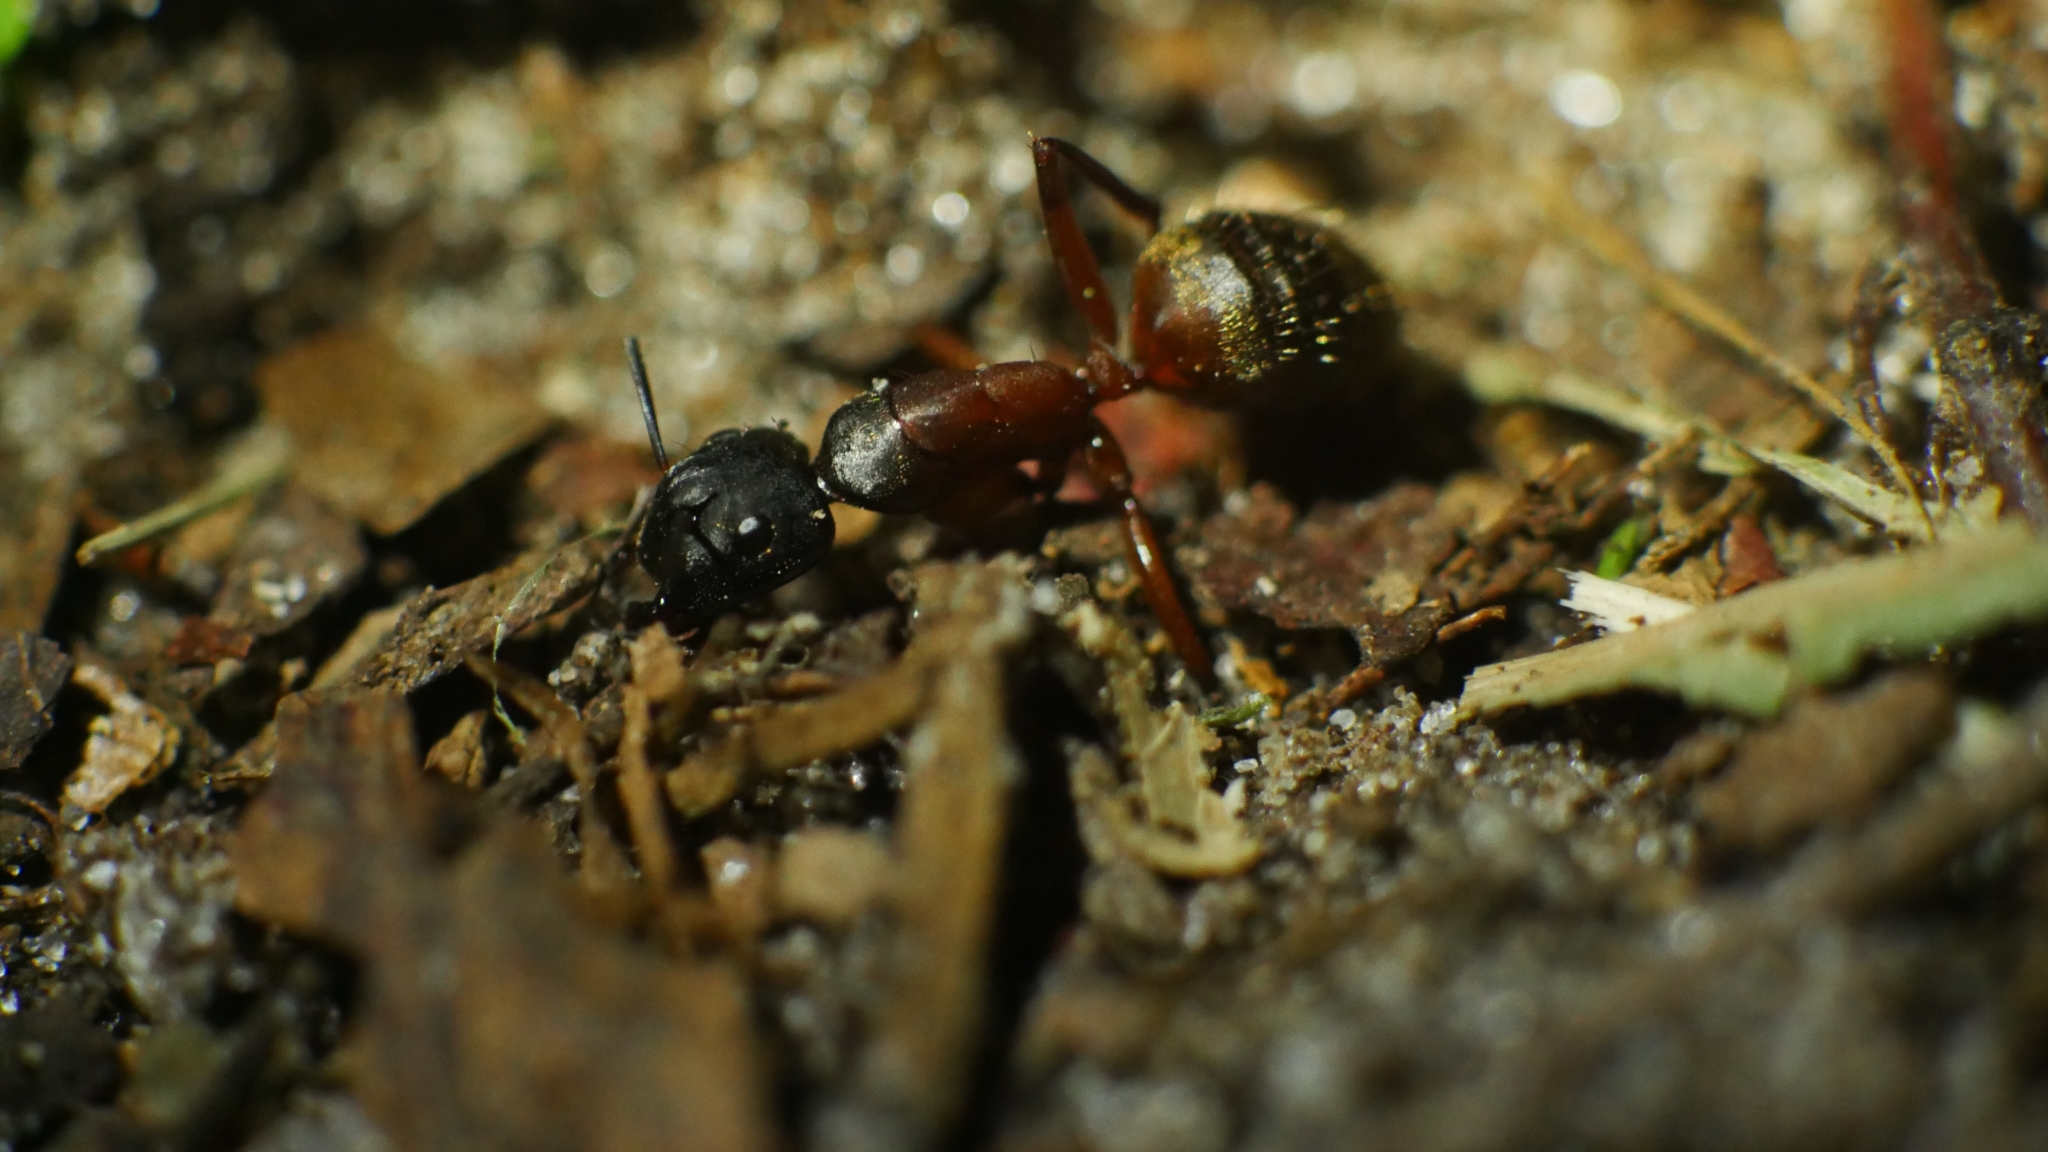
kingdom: Animalia
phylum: Arthropoda
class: Insecta
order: Hymenoptera
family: Formicidae
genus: Camponotus
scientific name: Camponotus chromaiodes
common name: Red carpenter ant
